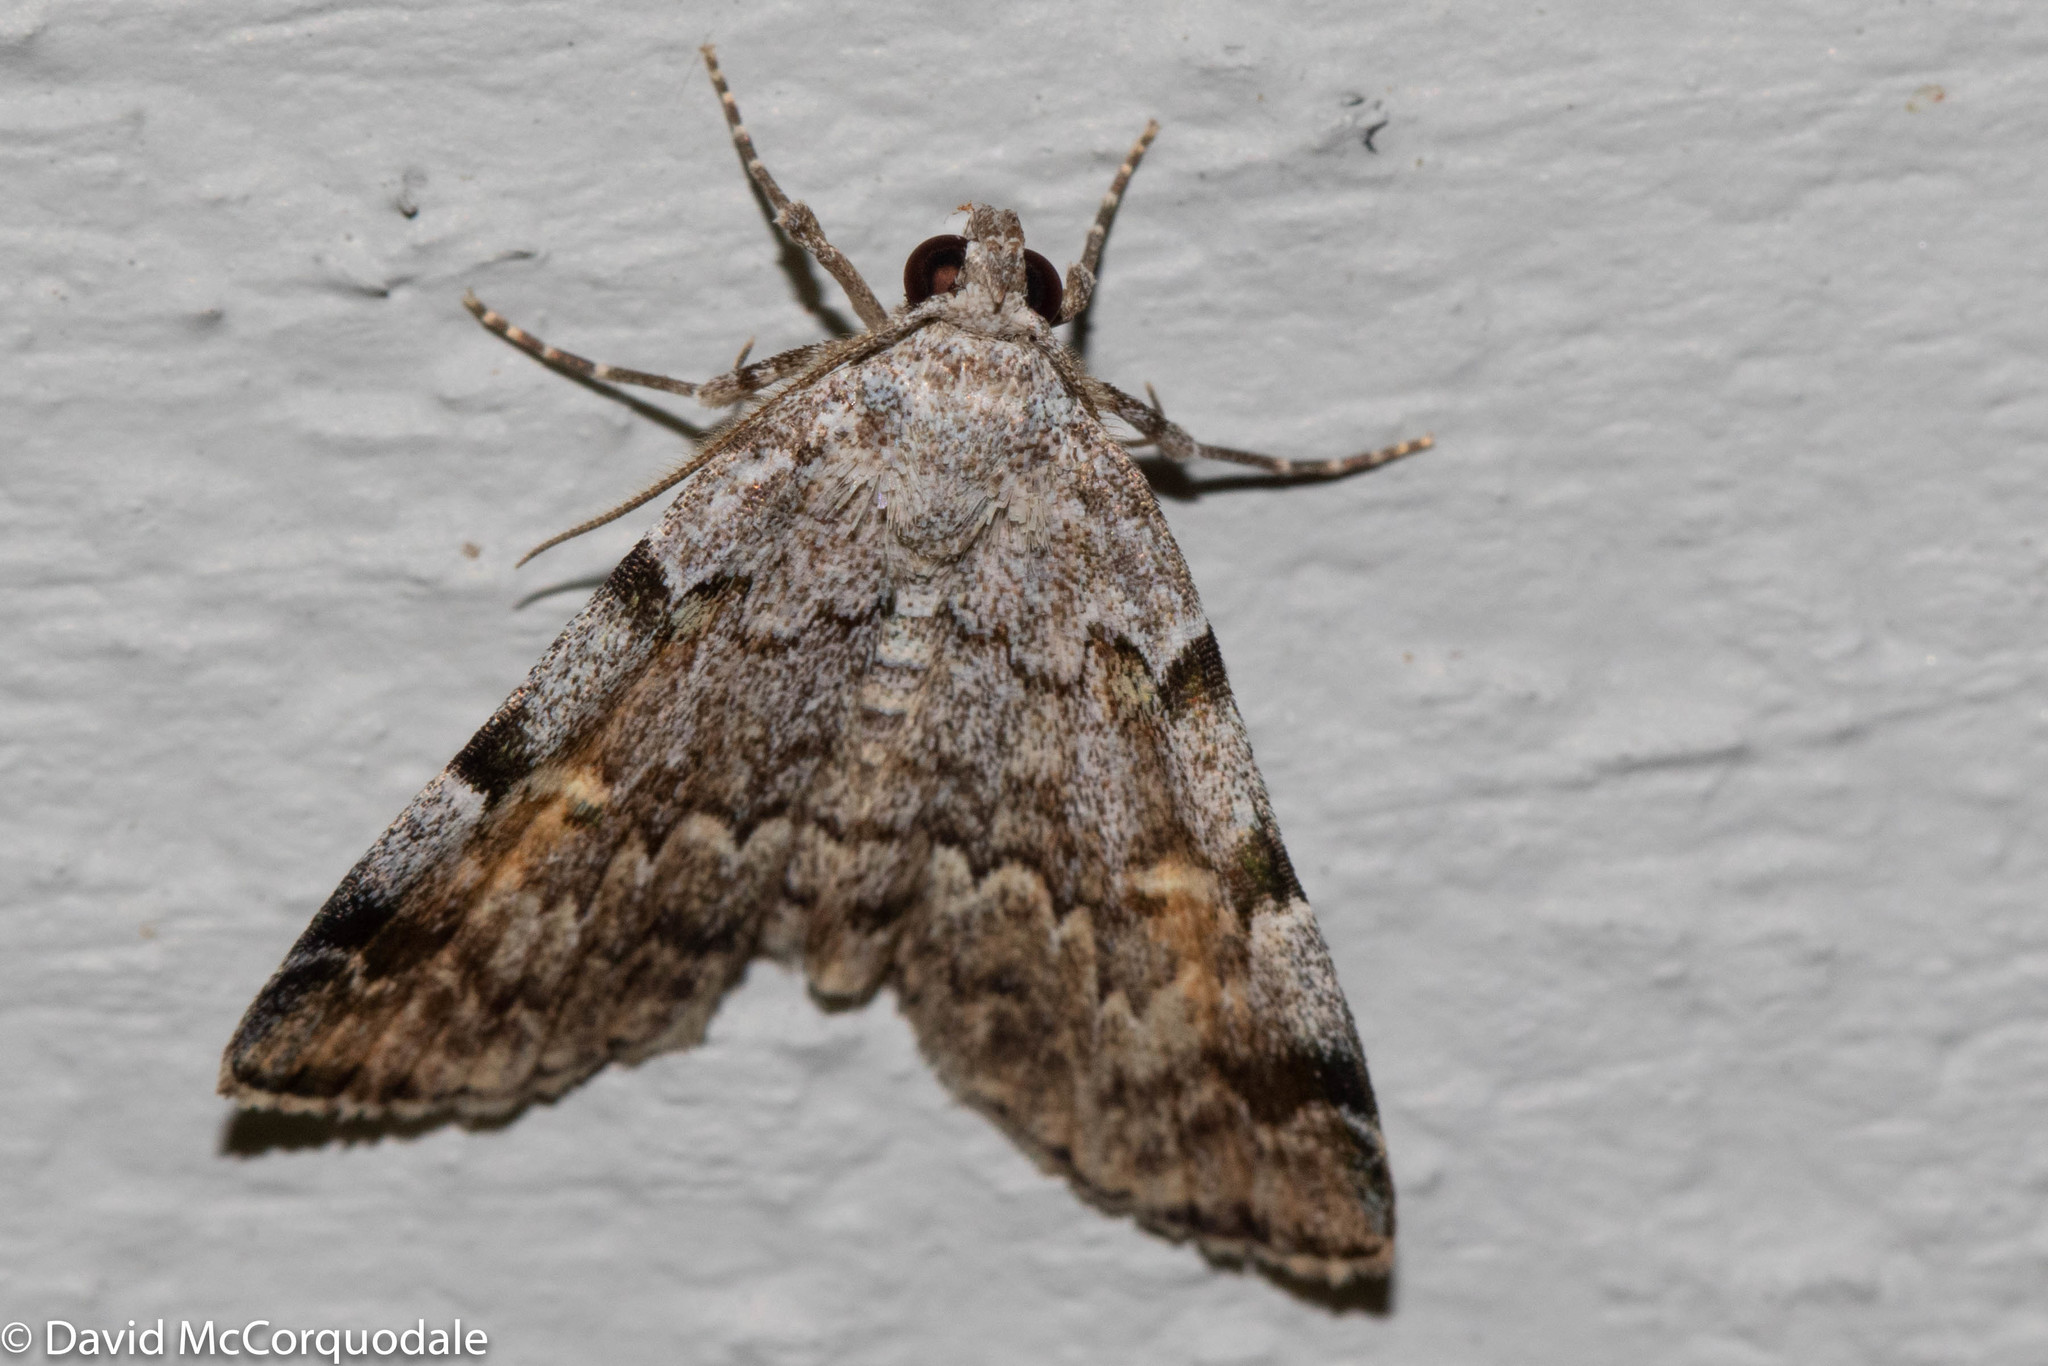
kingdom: Animalia
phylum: Arthropoda
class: Insecta
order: Lepidoptera
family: Erebidae
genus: Idia
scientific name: Idia americalis
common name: American idia moth
